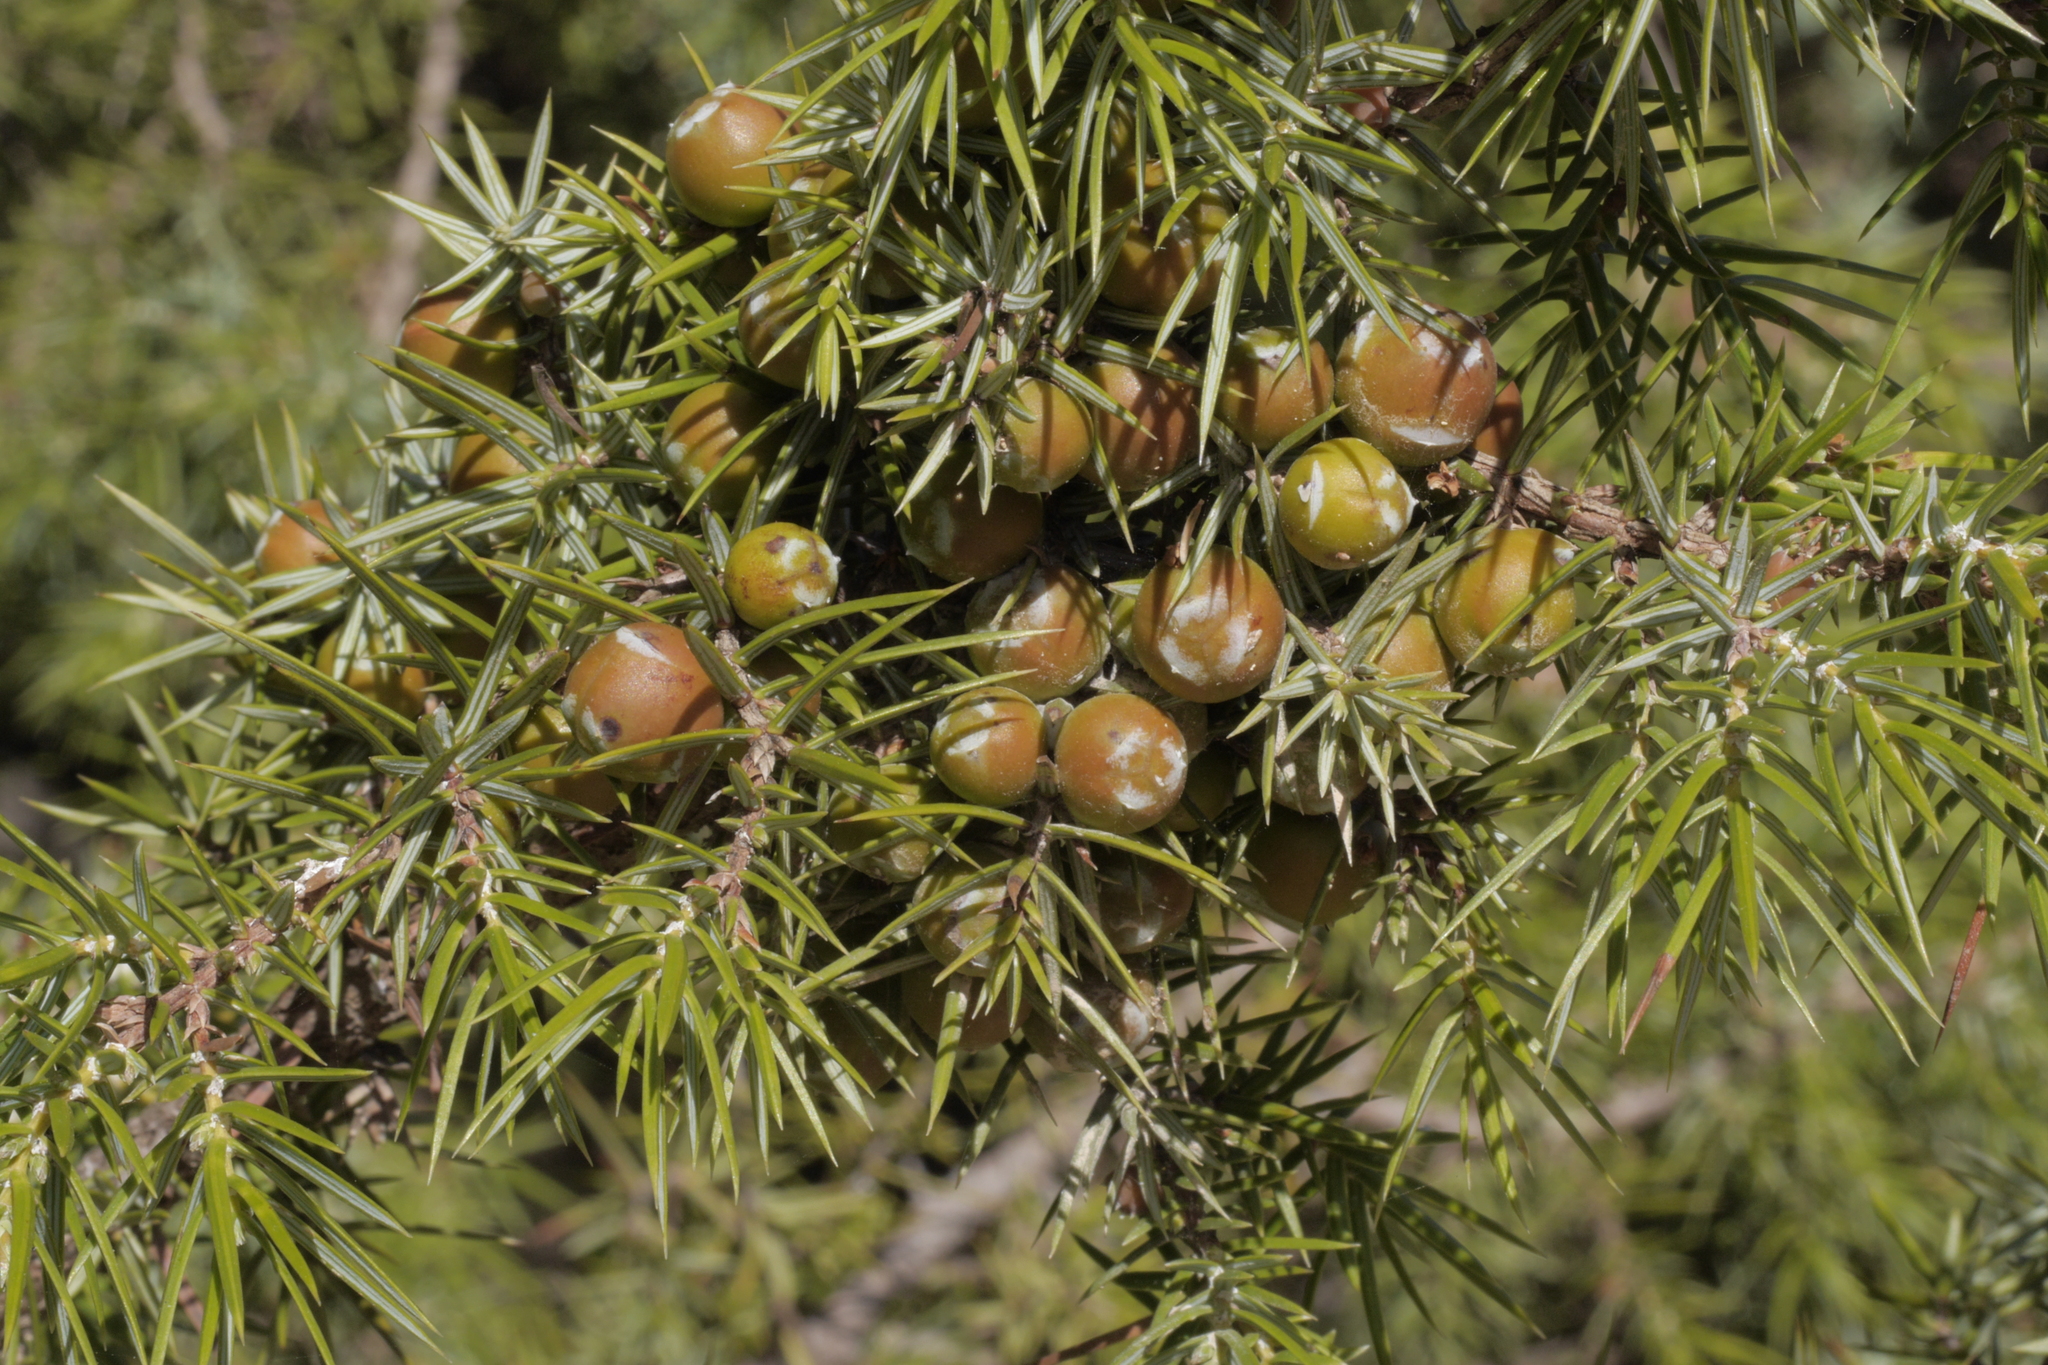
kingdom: Plantae
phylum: Tracheophyta
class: Pinopsida
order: Pinales
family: Cupressaceae
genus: Juniperus
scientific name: Juniperus oxycedrus
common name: Prickly juniper
